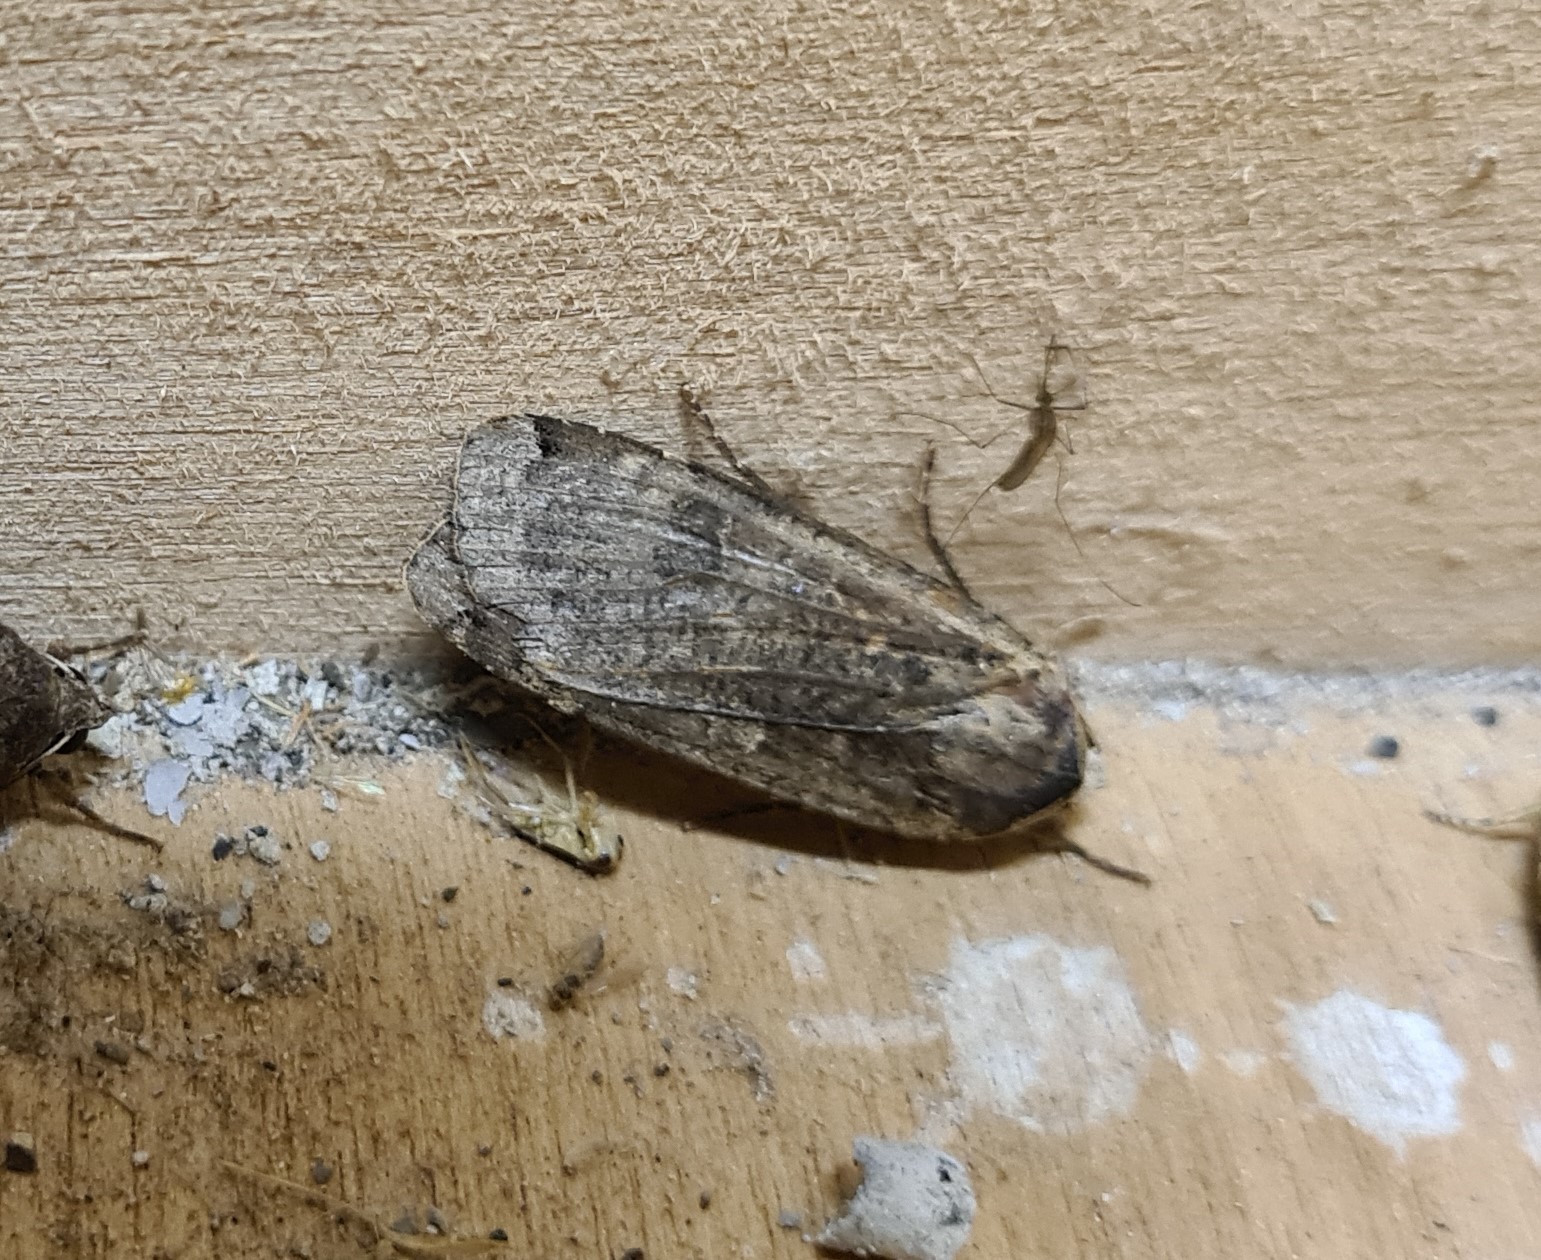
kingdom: Animalia
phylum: Arthropoda
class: Insecta
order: Lepidoptera
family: Noctuidae
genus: Noctua
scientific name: Noctua pronuba
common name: Large yellow underwing
